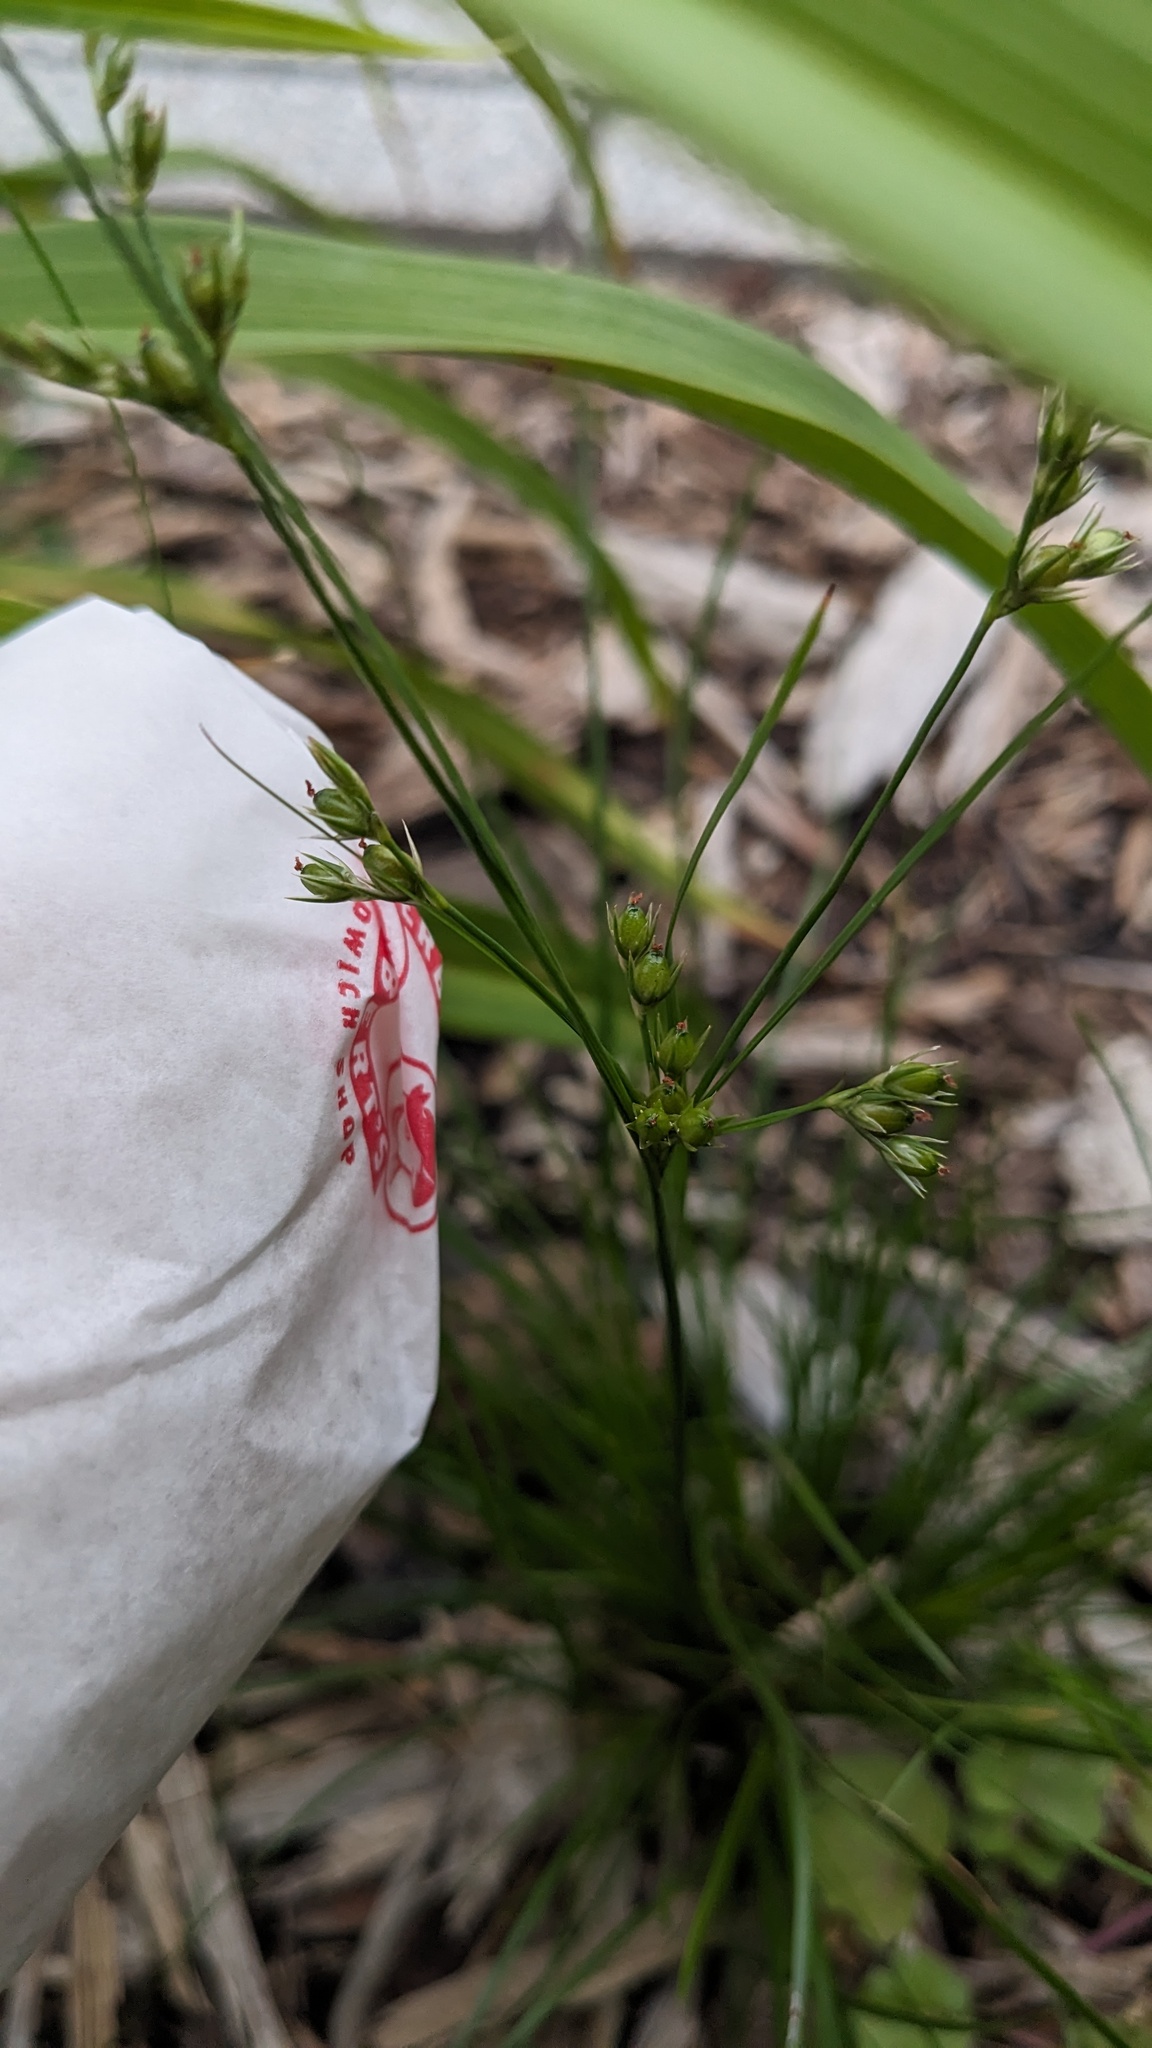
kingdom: Plantae
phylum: Tracheophyta
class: Liliopsida
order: Poales
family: Juncaceae
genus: Juncus
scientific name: Juncus tenuis
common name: Slender rush
